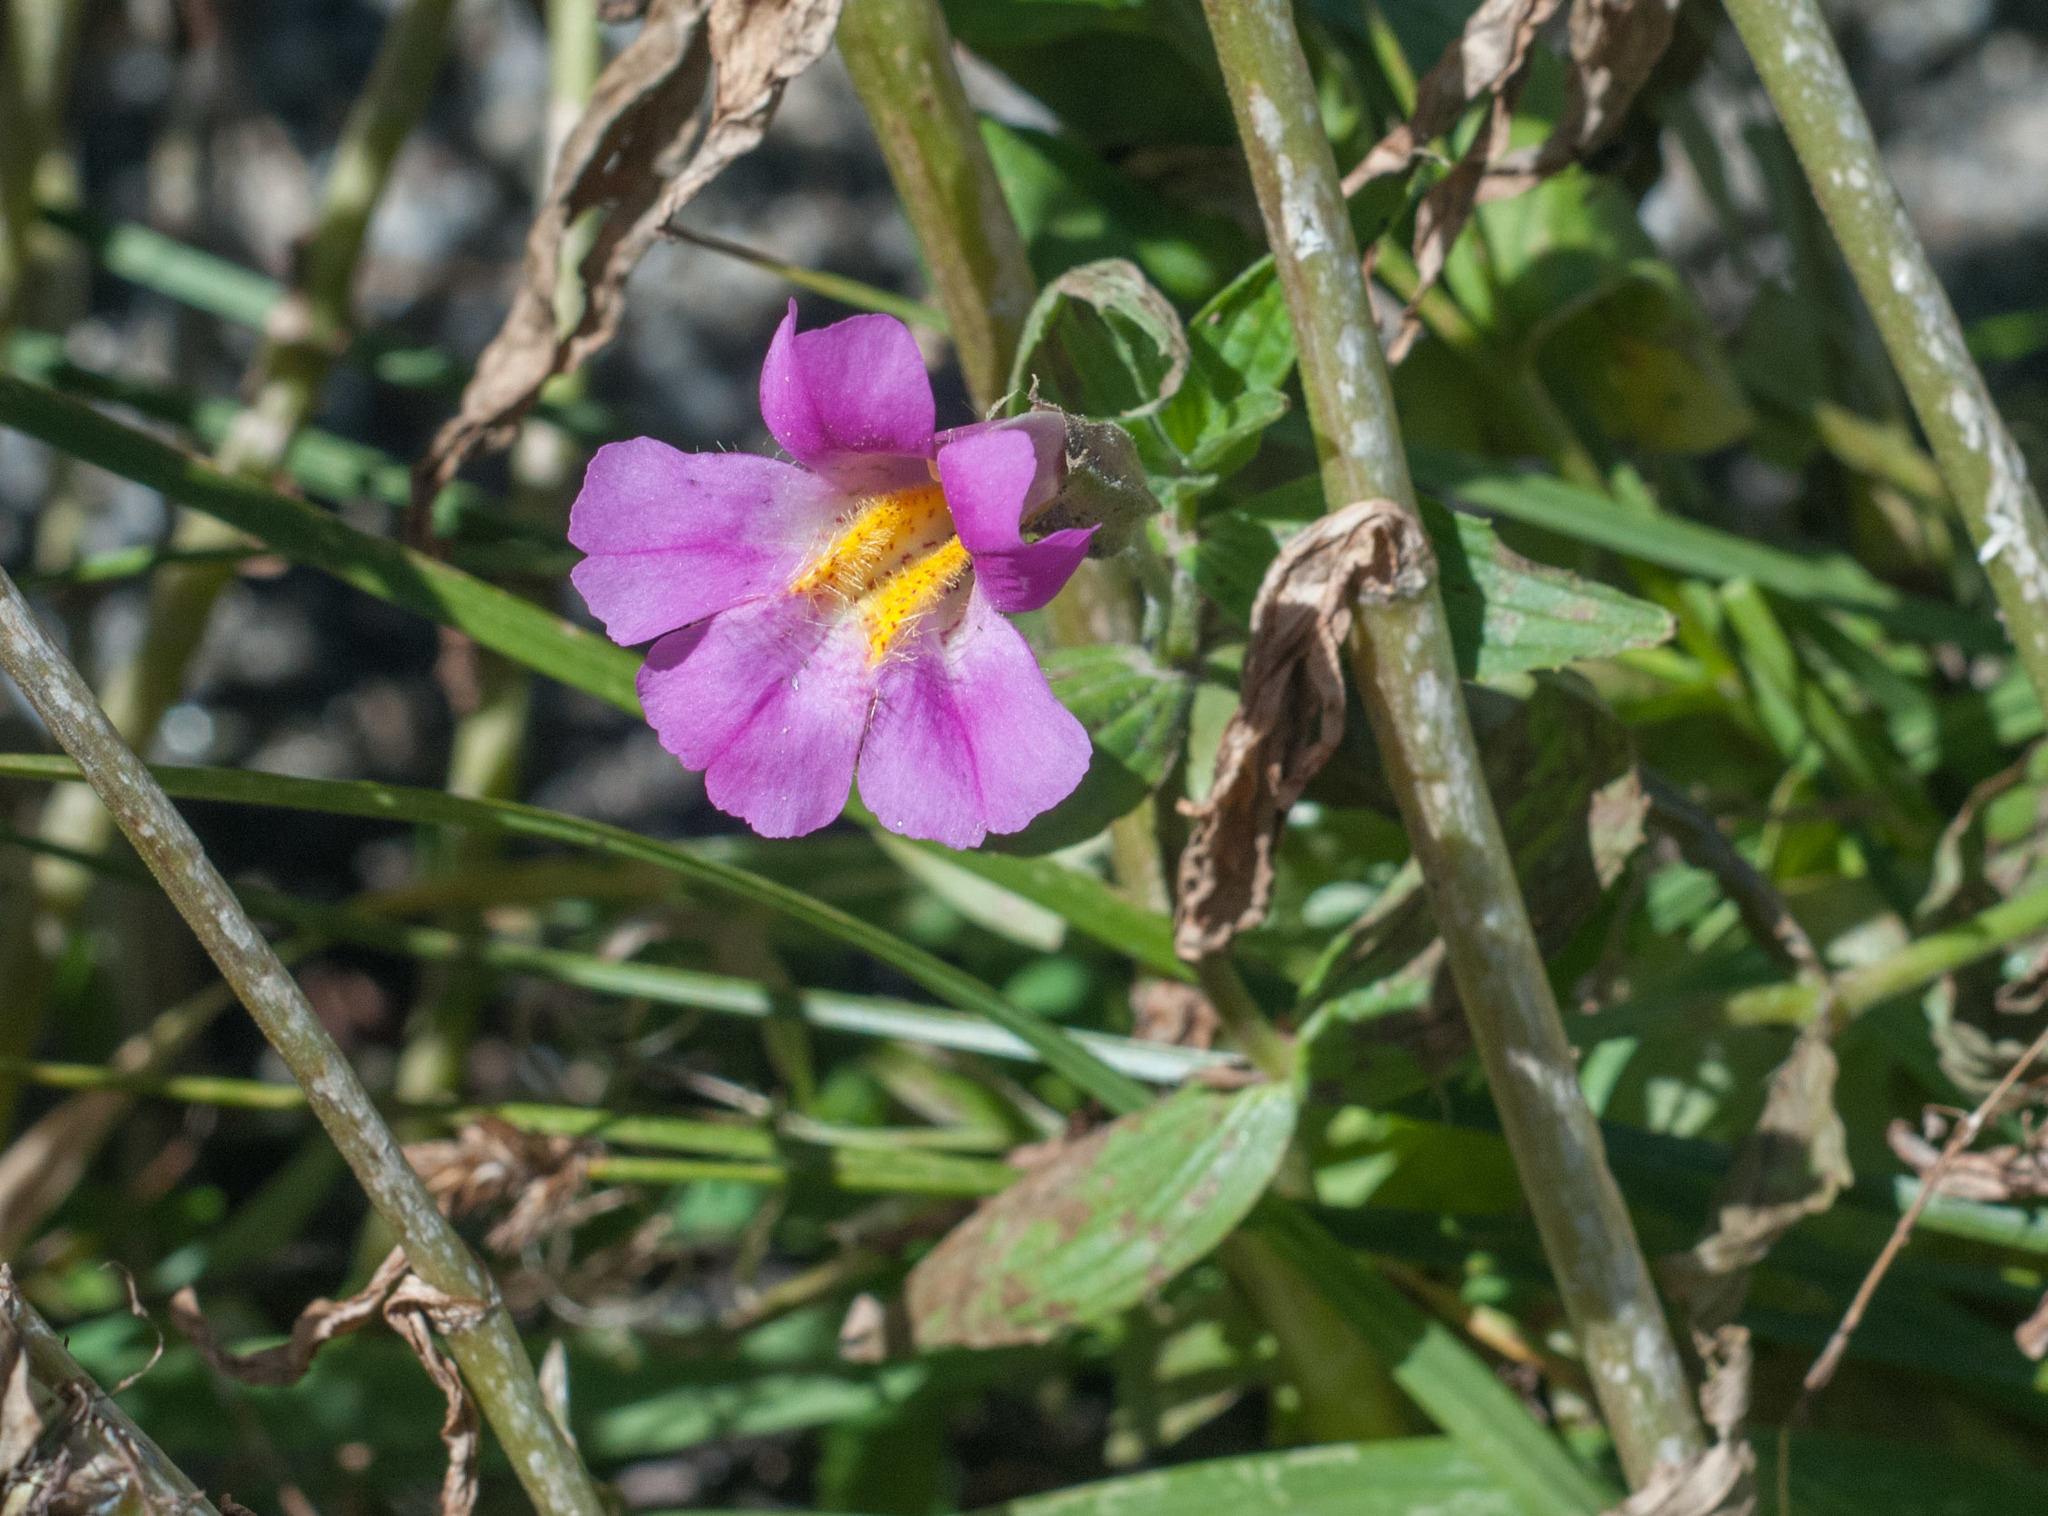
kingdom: Plantae
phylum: Tracheophyta
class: Magnoliopsida
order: Lamiales
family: Phrymaceae
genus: Erythranthe
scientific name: Erythranthe lewisii
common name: Lewis's monkey-flower
